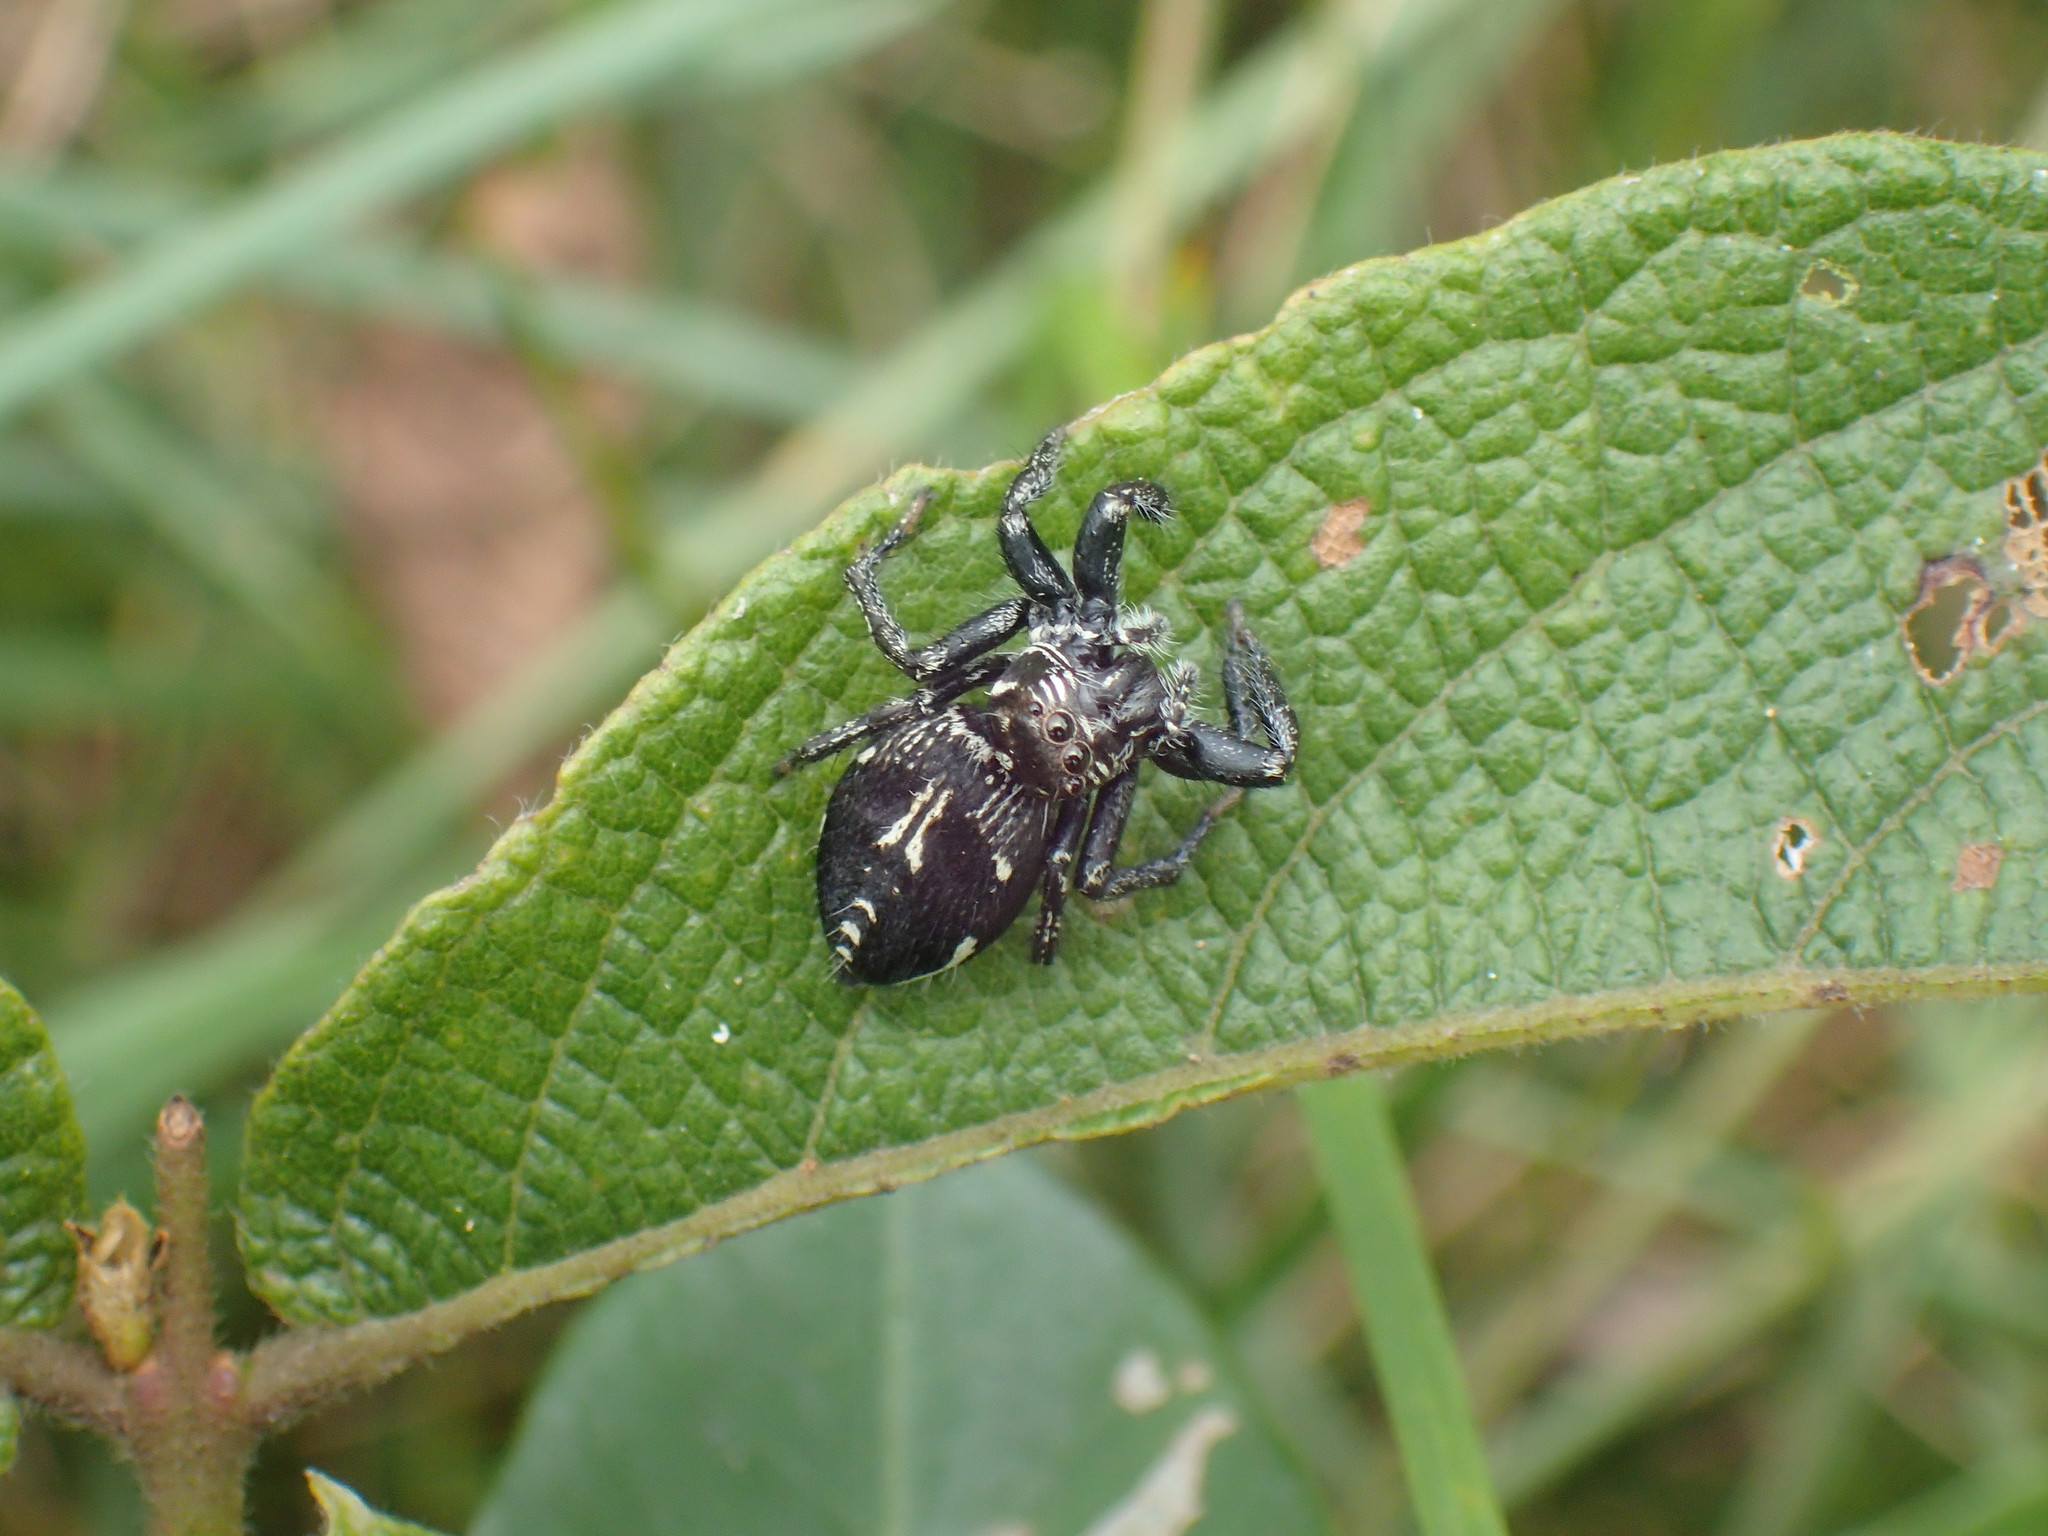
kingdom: Animalia
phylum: Arthropoda
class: Arachnida
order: Araneae
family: Salticidae
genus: Hyllus
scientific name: Hyllus argyrotoxus
